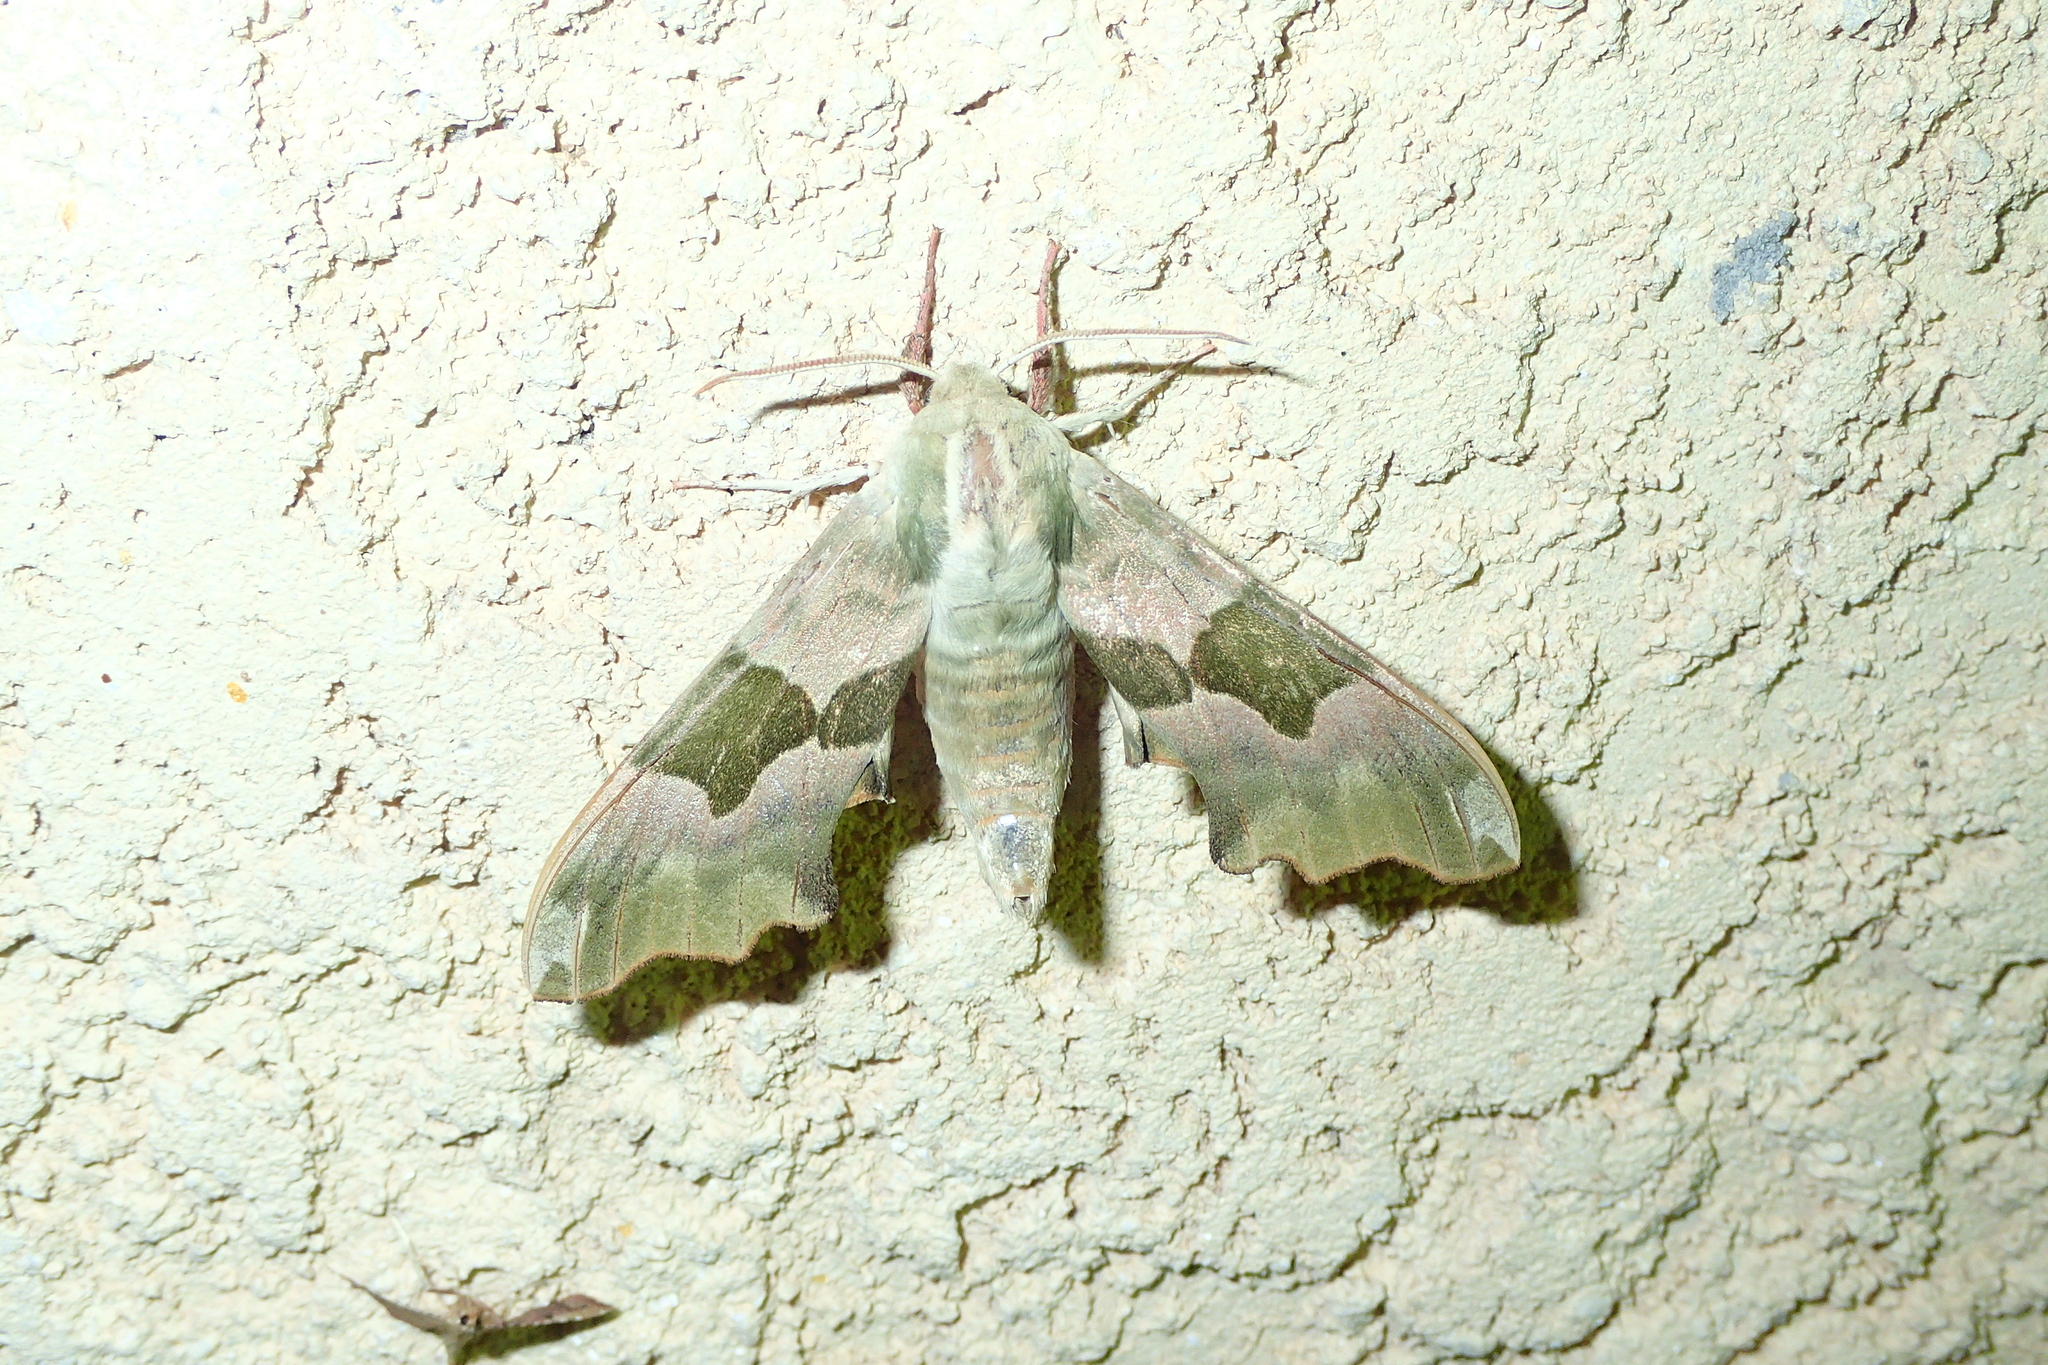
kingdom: Animalia
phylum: Arthropoda
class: Insecta
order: Lepidoptera
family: Sphingidae
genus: Mimas
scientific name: Mimas tiliae
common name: Lime hawk-moth
